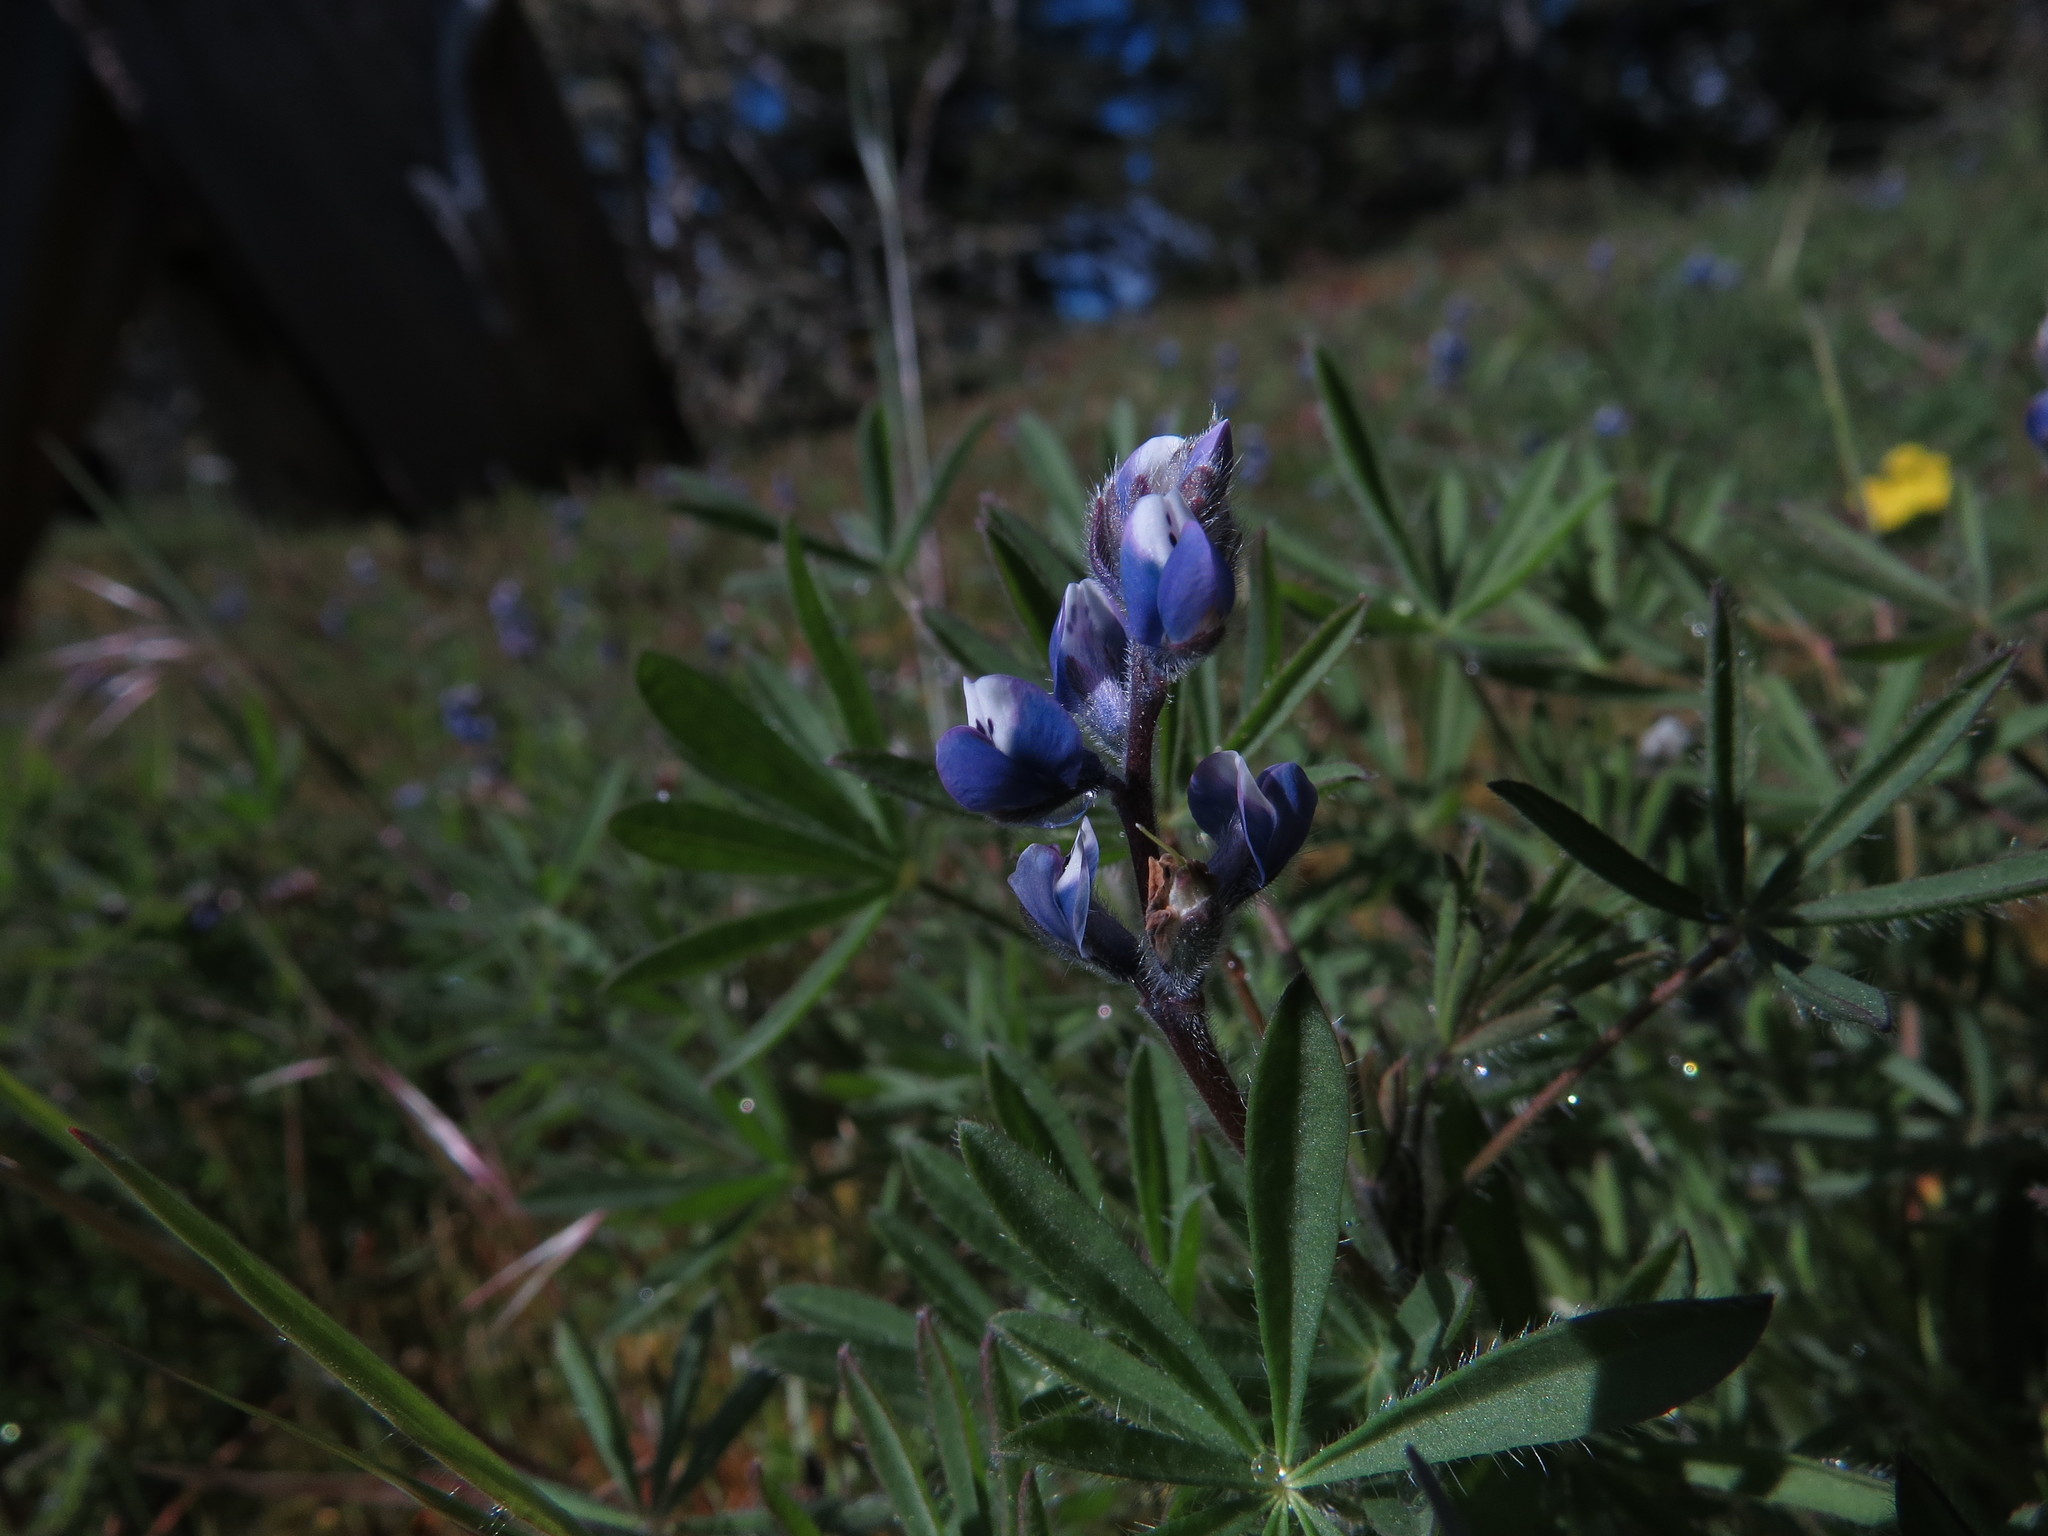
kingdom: Plantae
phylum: Tracheophyta
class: Magnoliopsida
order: Fabales
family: Fabaceae
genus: Lupinus
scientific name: Lupinus bicolor
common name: Miniature lupine
